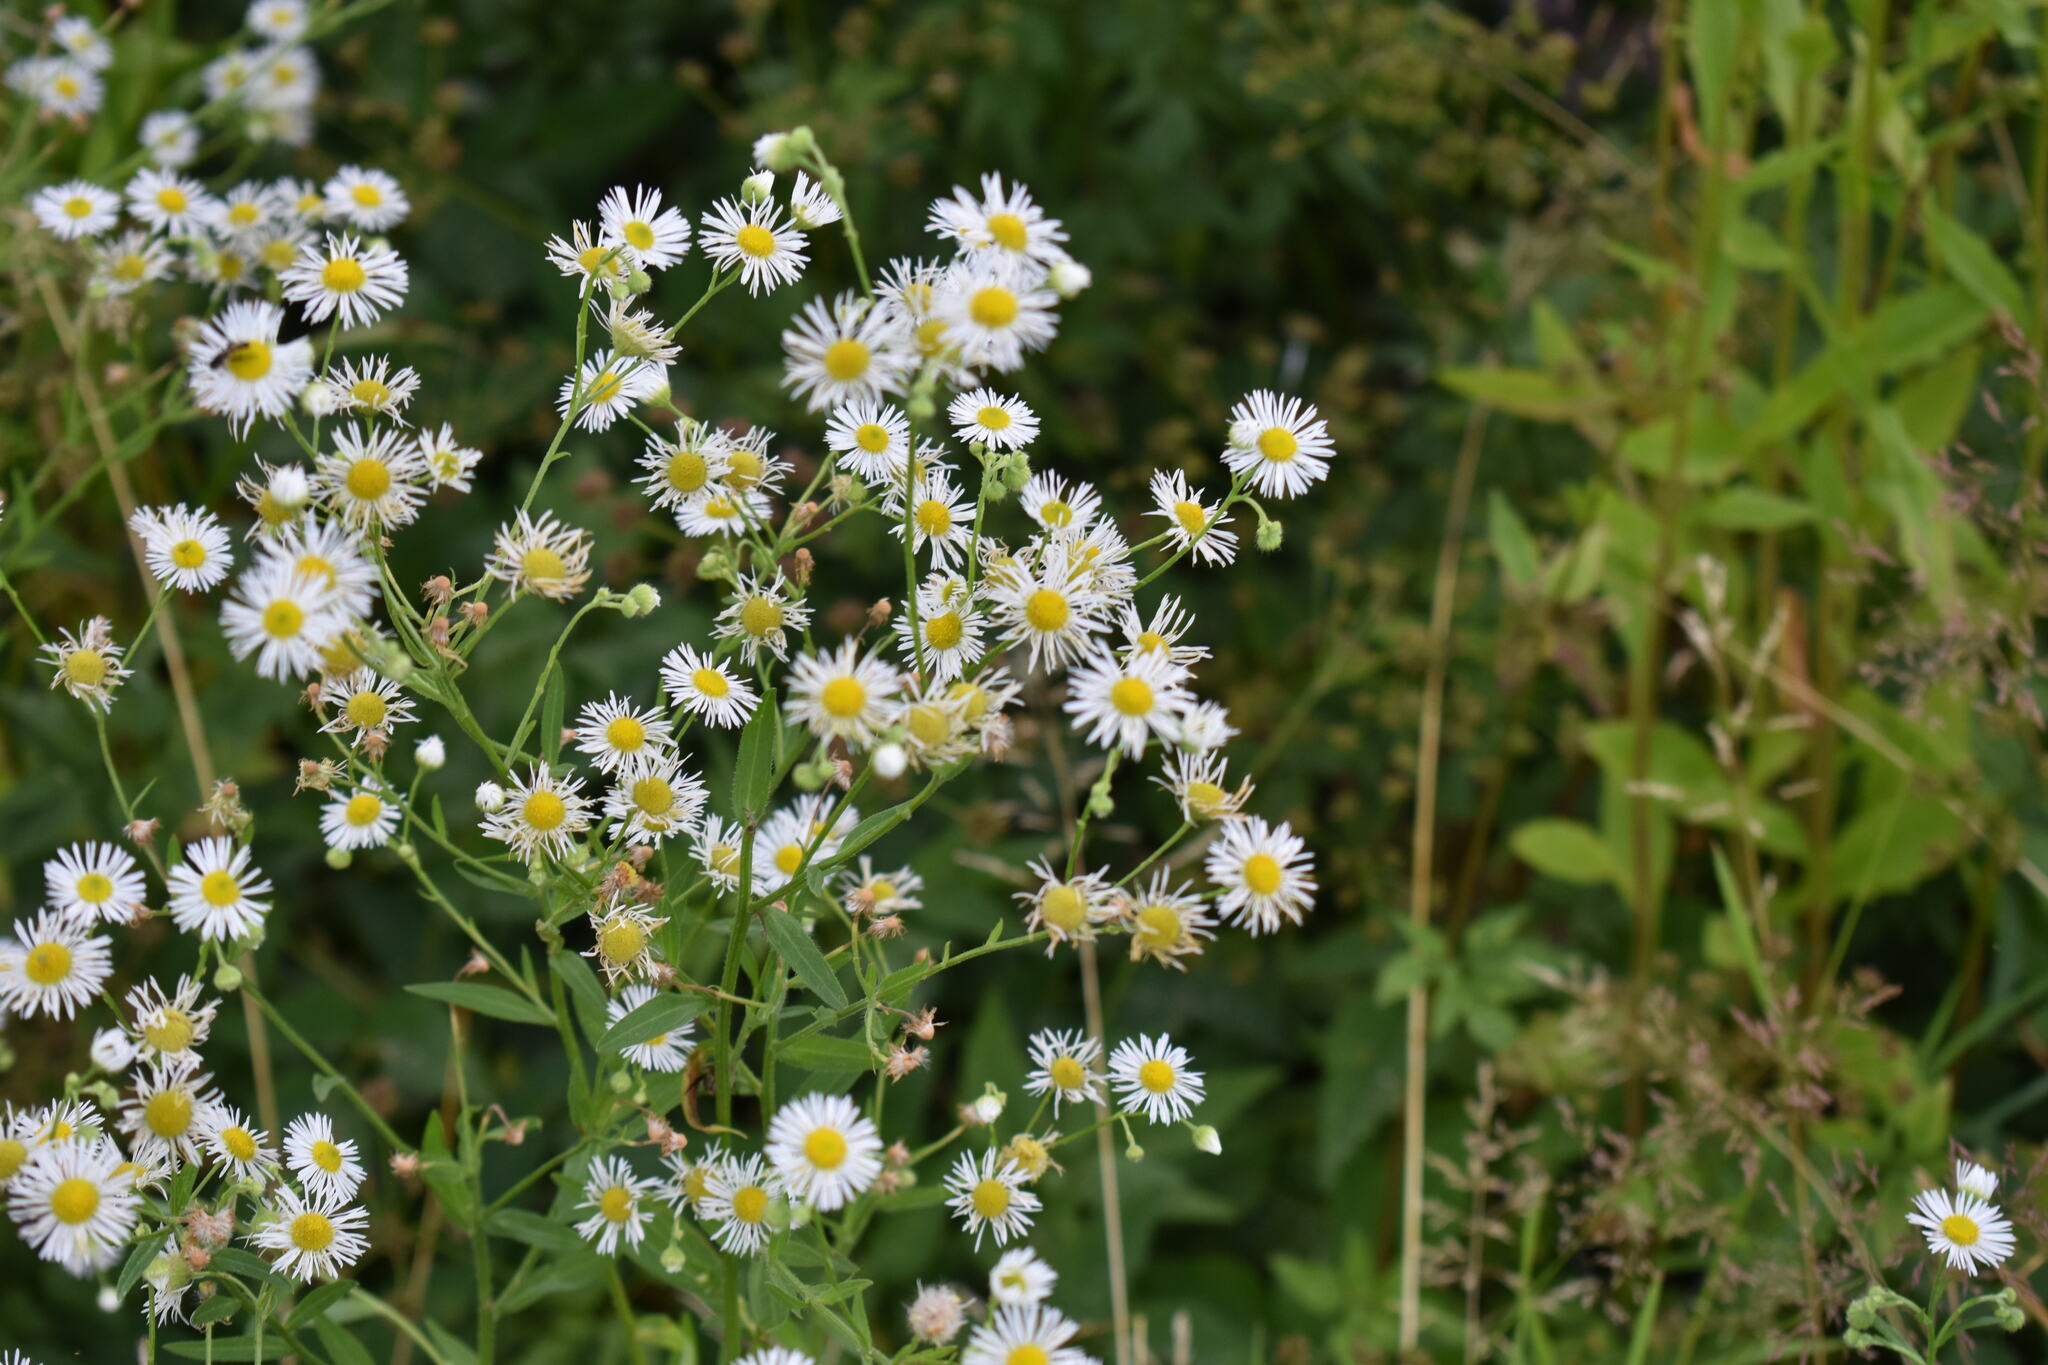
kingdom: Plantae
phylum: Tracheophyta
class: Magnoliopsida
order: Asterales
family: Asteraceae
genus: Erigeron
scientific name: Erigeron annuus
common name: Tall fleabane
